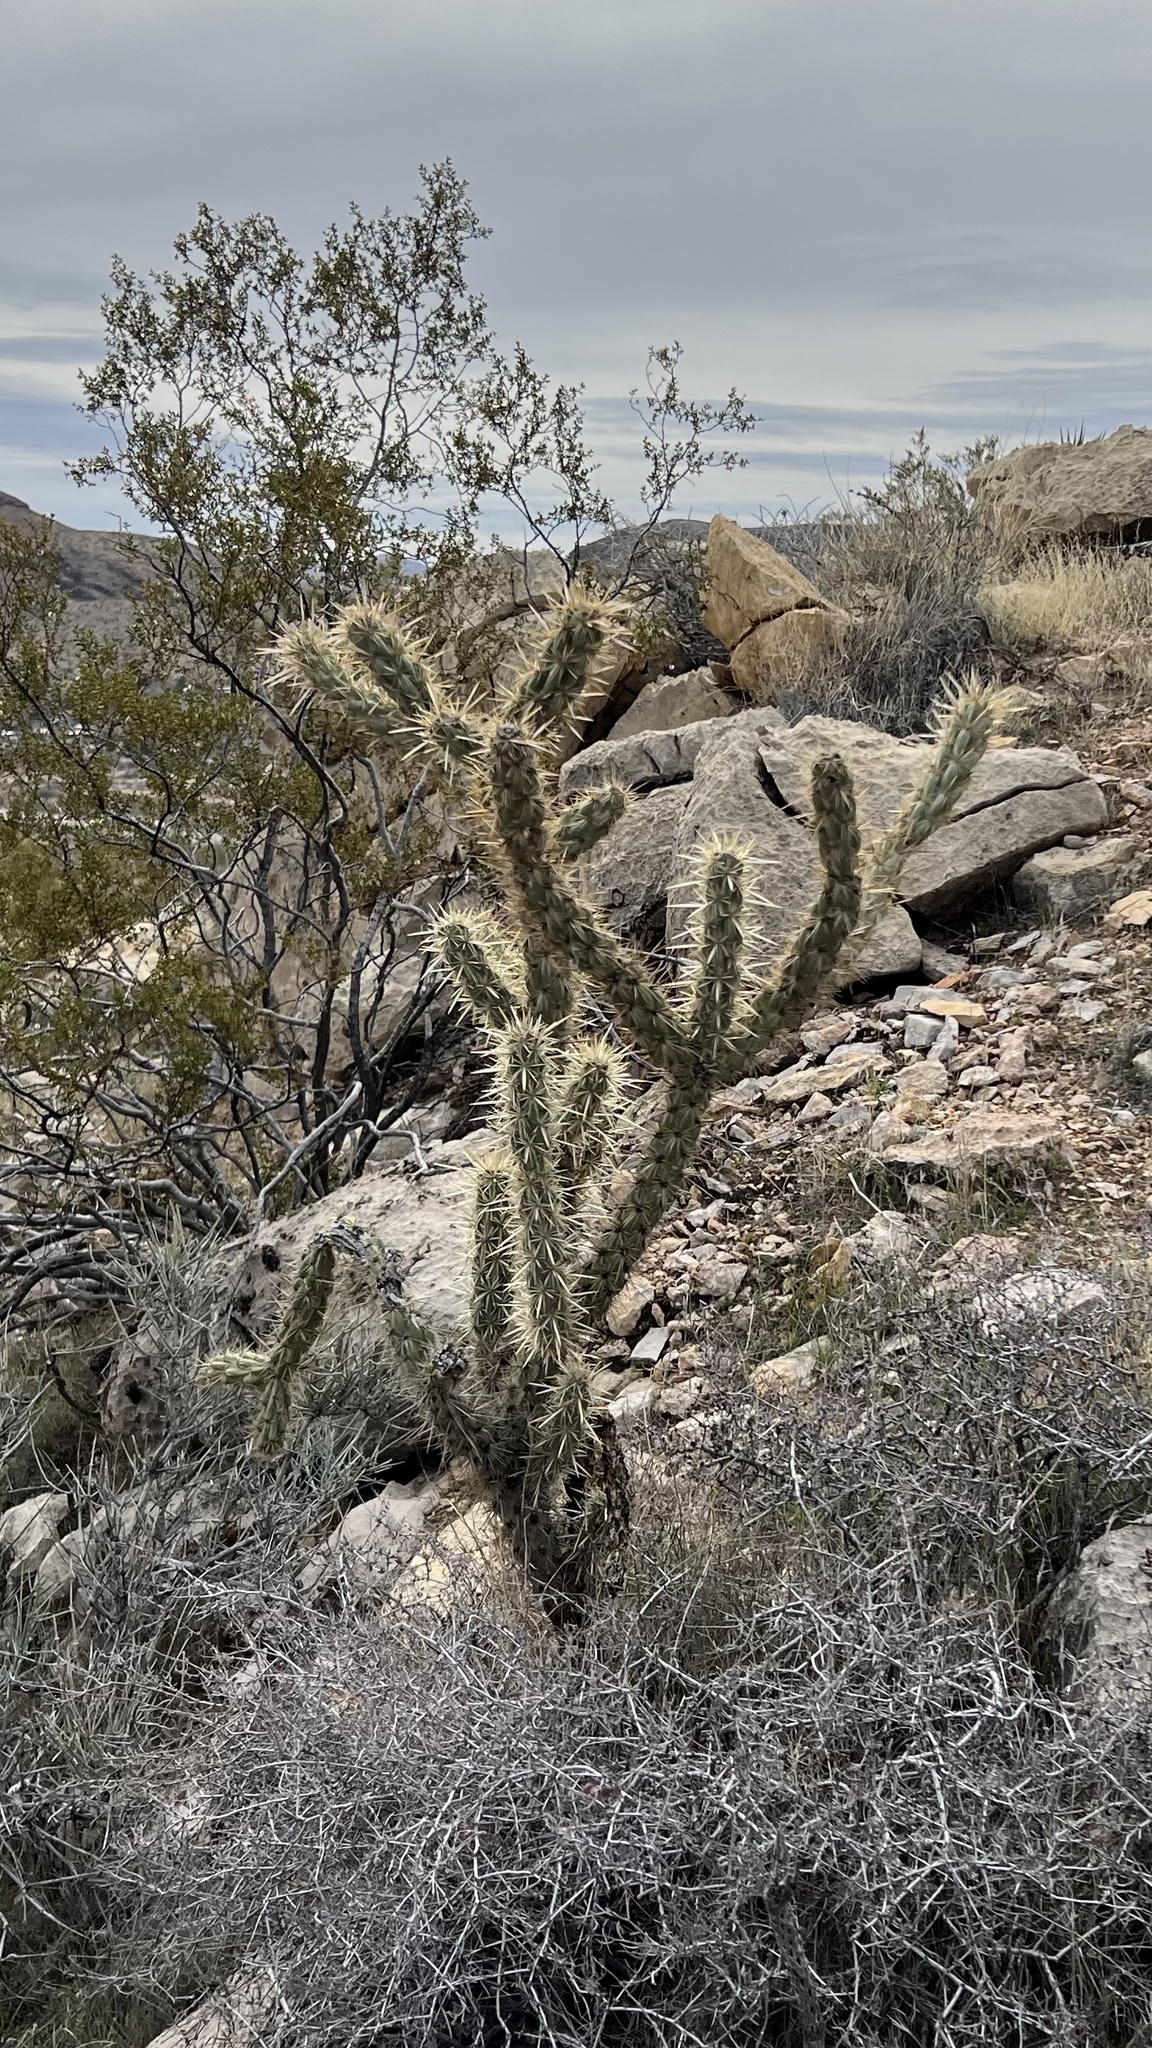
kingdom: Plantae
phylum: Tracheophyta
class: Magnoliopsida
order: Caryophyllales
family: Cactaceae
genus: Cylindropuntia
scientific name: Cylindropuntia acanthocarpa
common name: Buckhorn cholla
